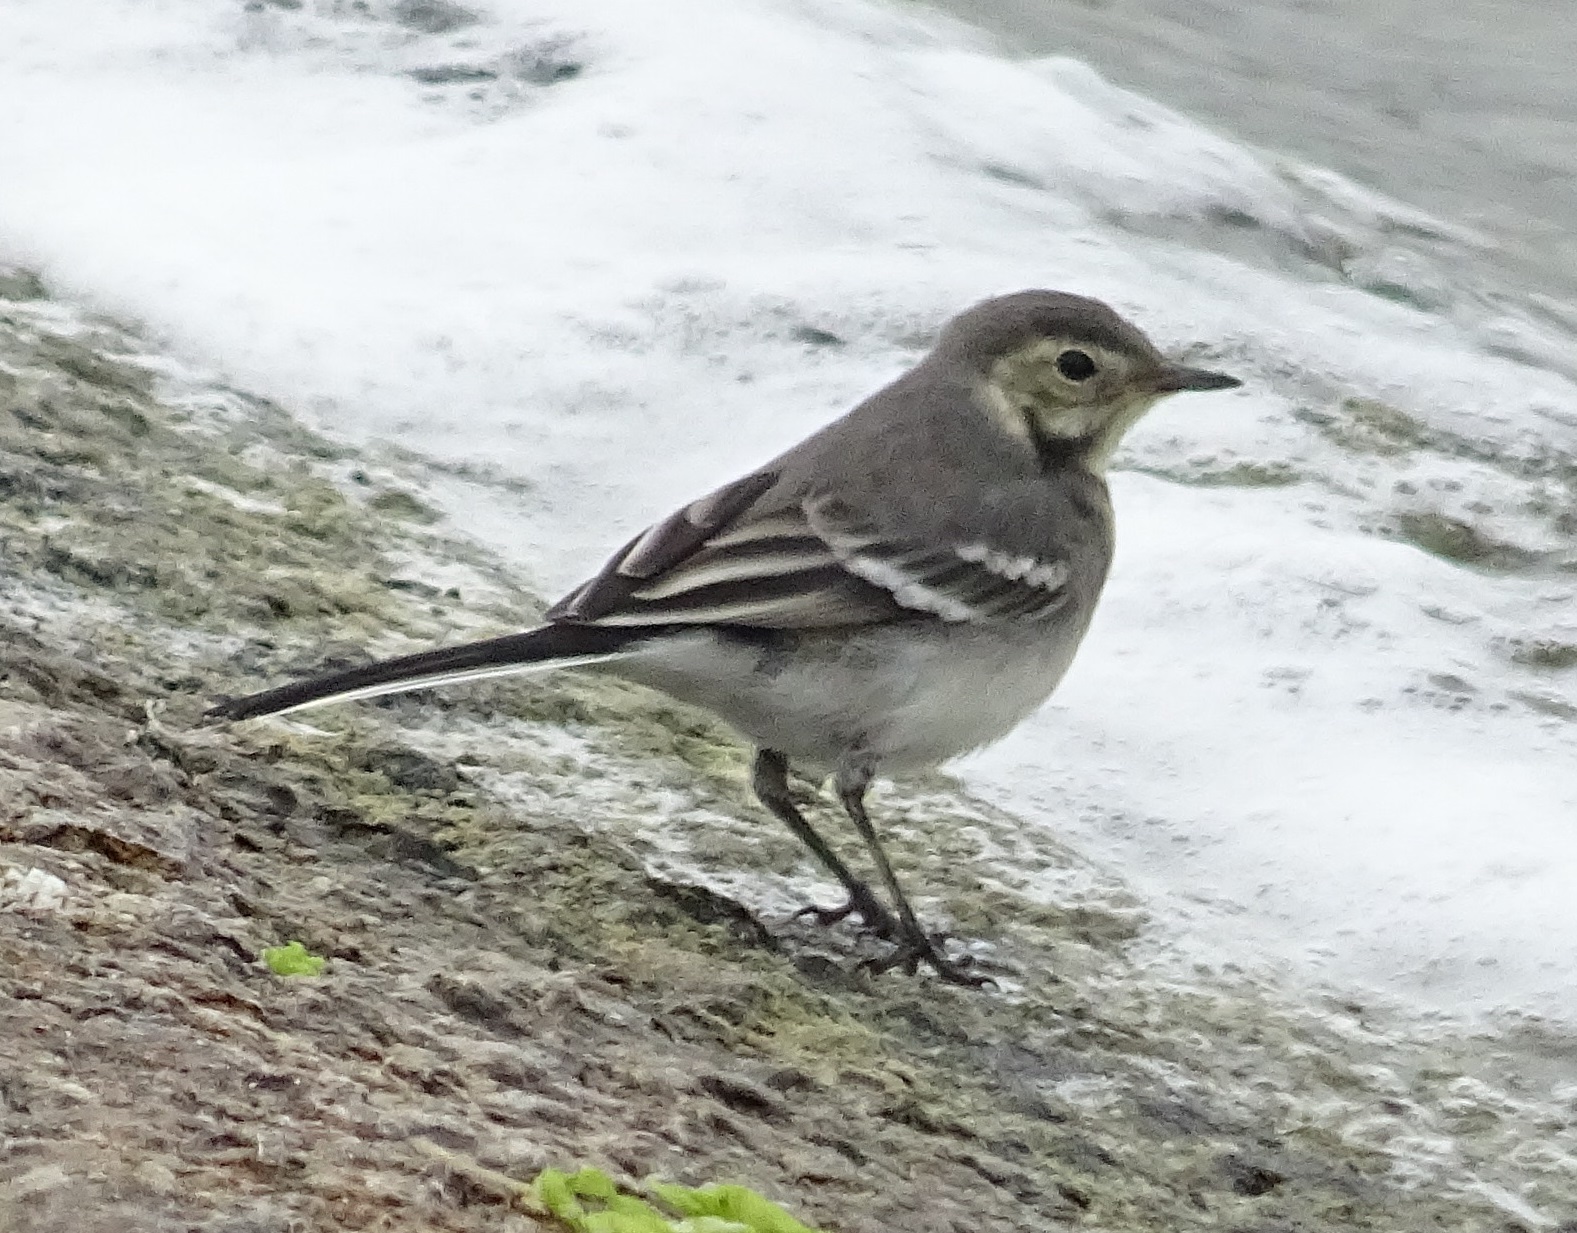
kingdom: Animalia
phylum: Chordata
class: Aves
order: Passeriformes
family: Motacillidae
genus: Motacilla
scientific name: Motacilla alba
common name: White wagtail
